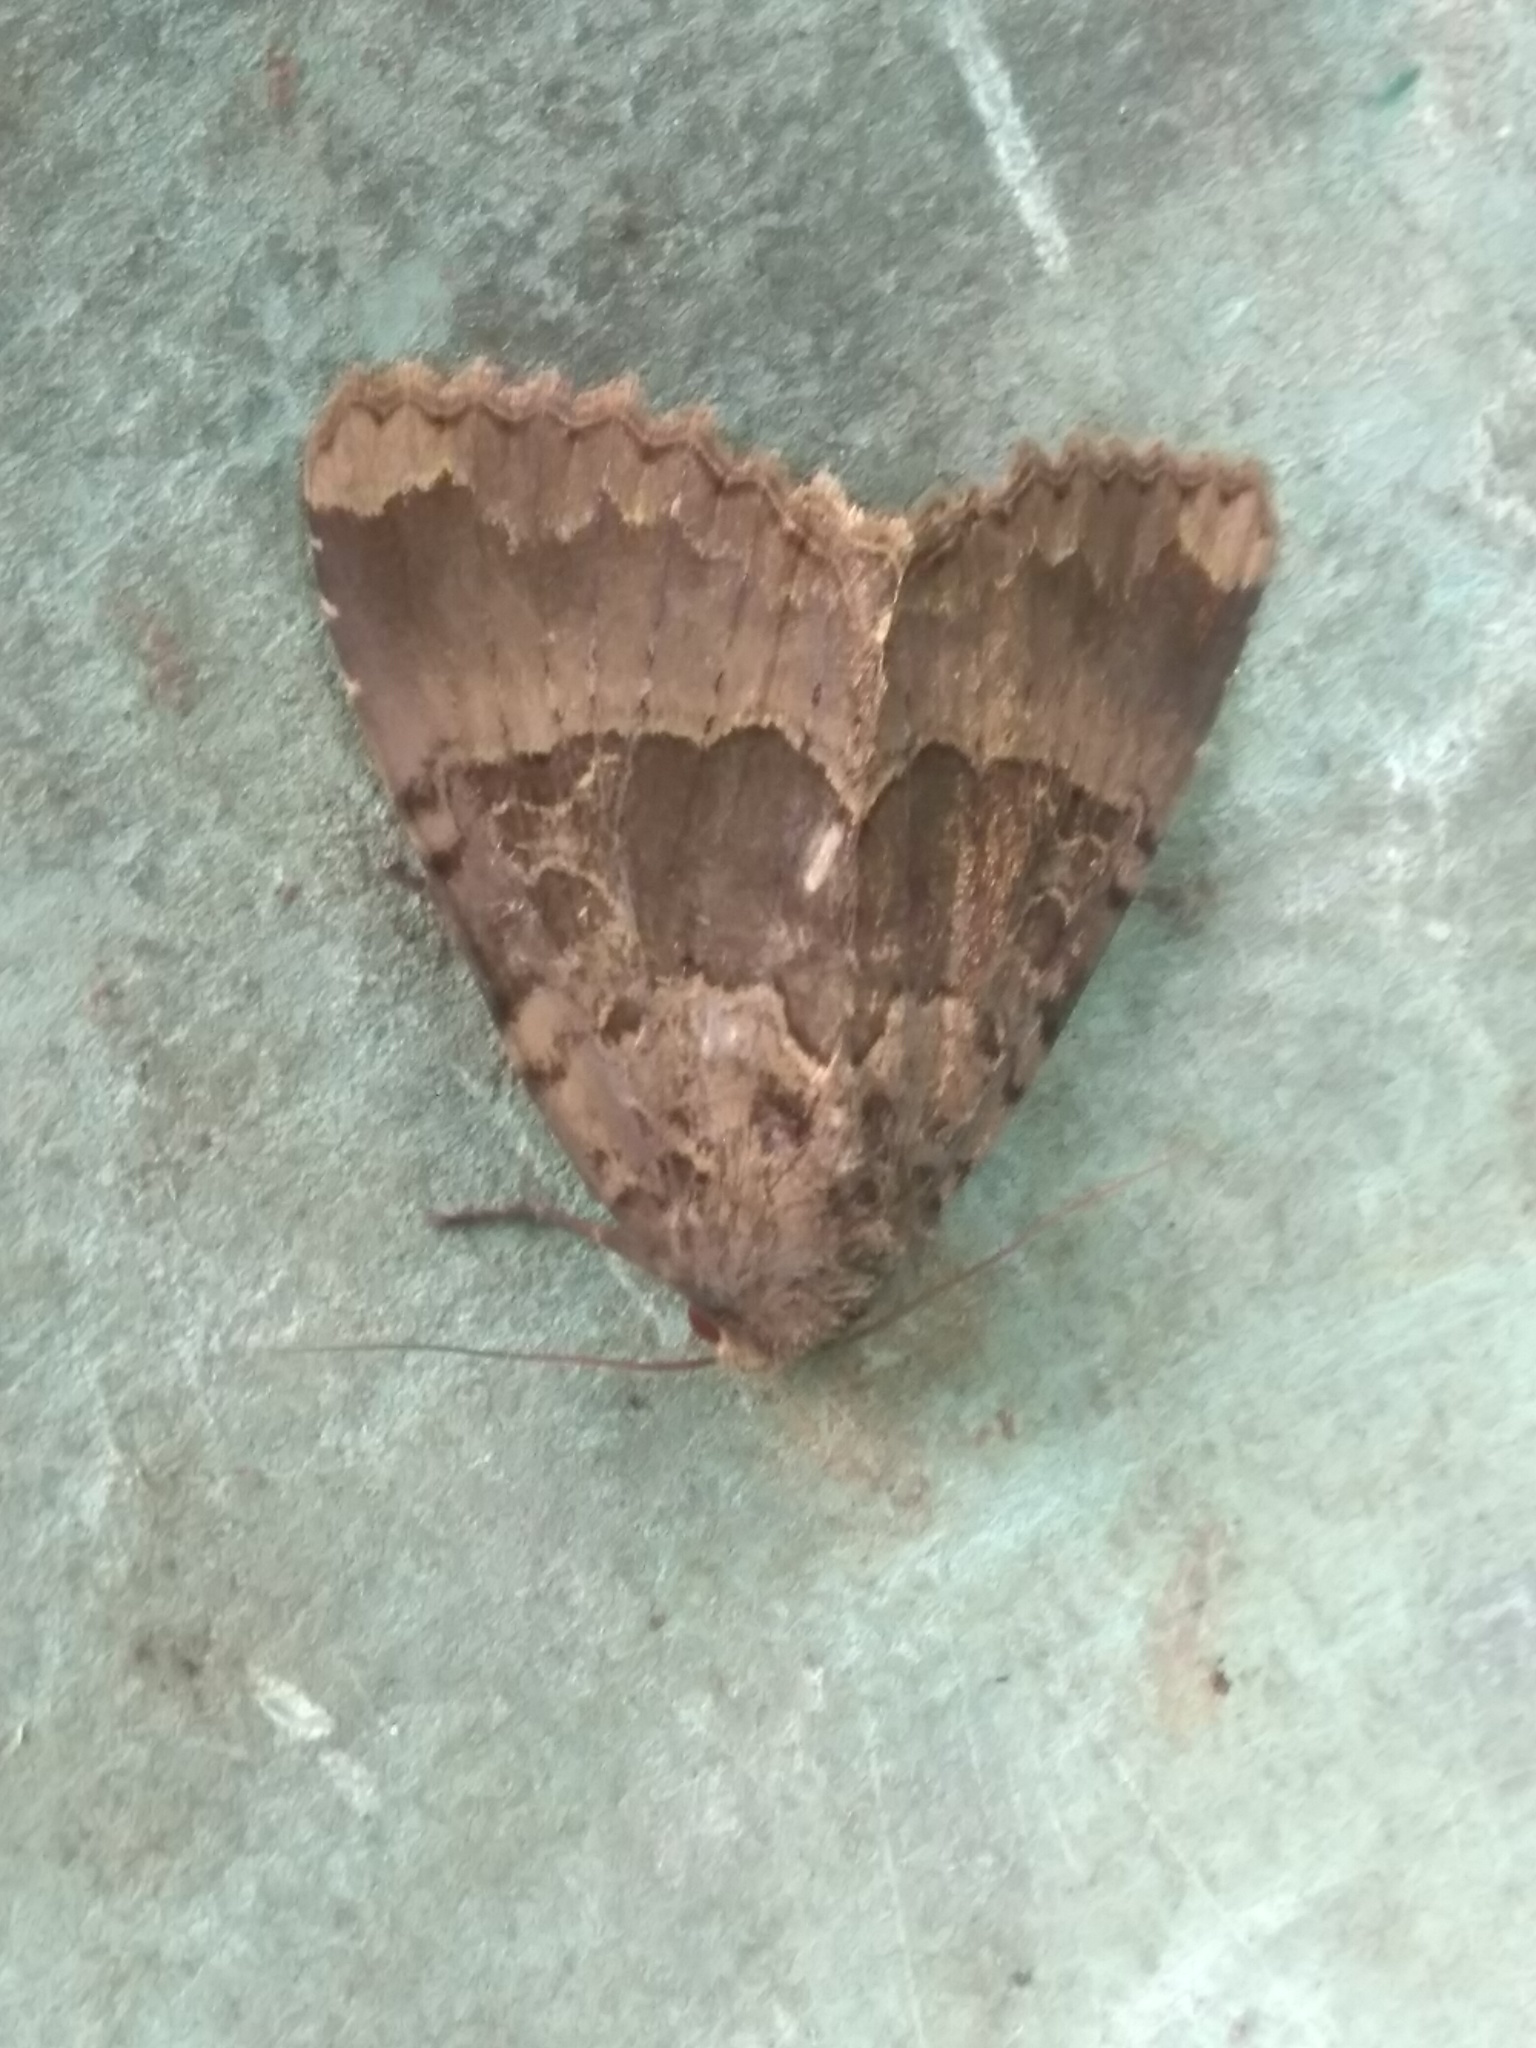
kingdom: Animalia
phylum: Arthropoda
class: Insecta
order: Lepidoptera
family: Noctuidae
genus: Mormo
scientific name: Mormo maura
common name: Old lady
